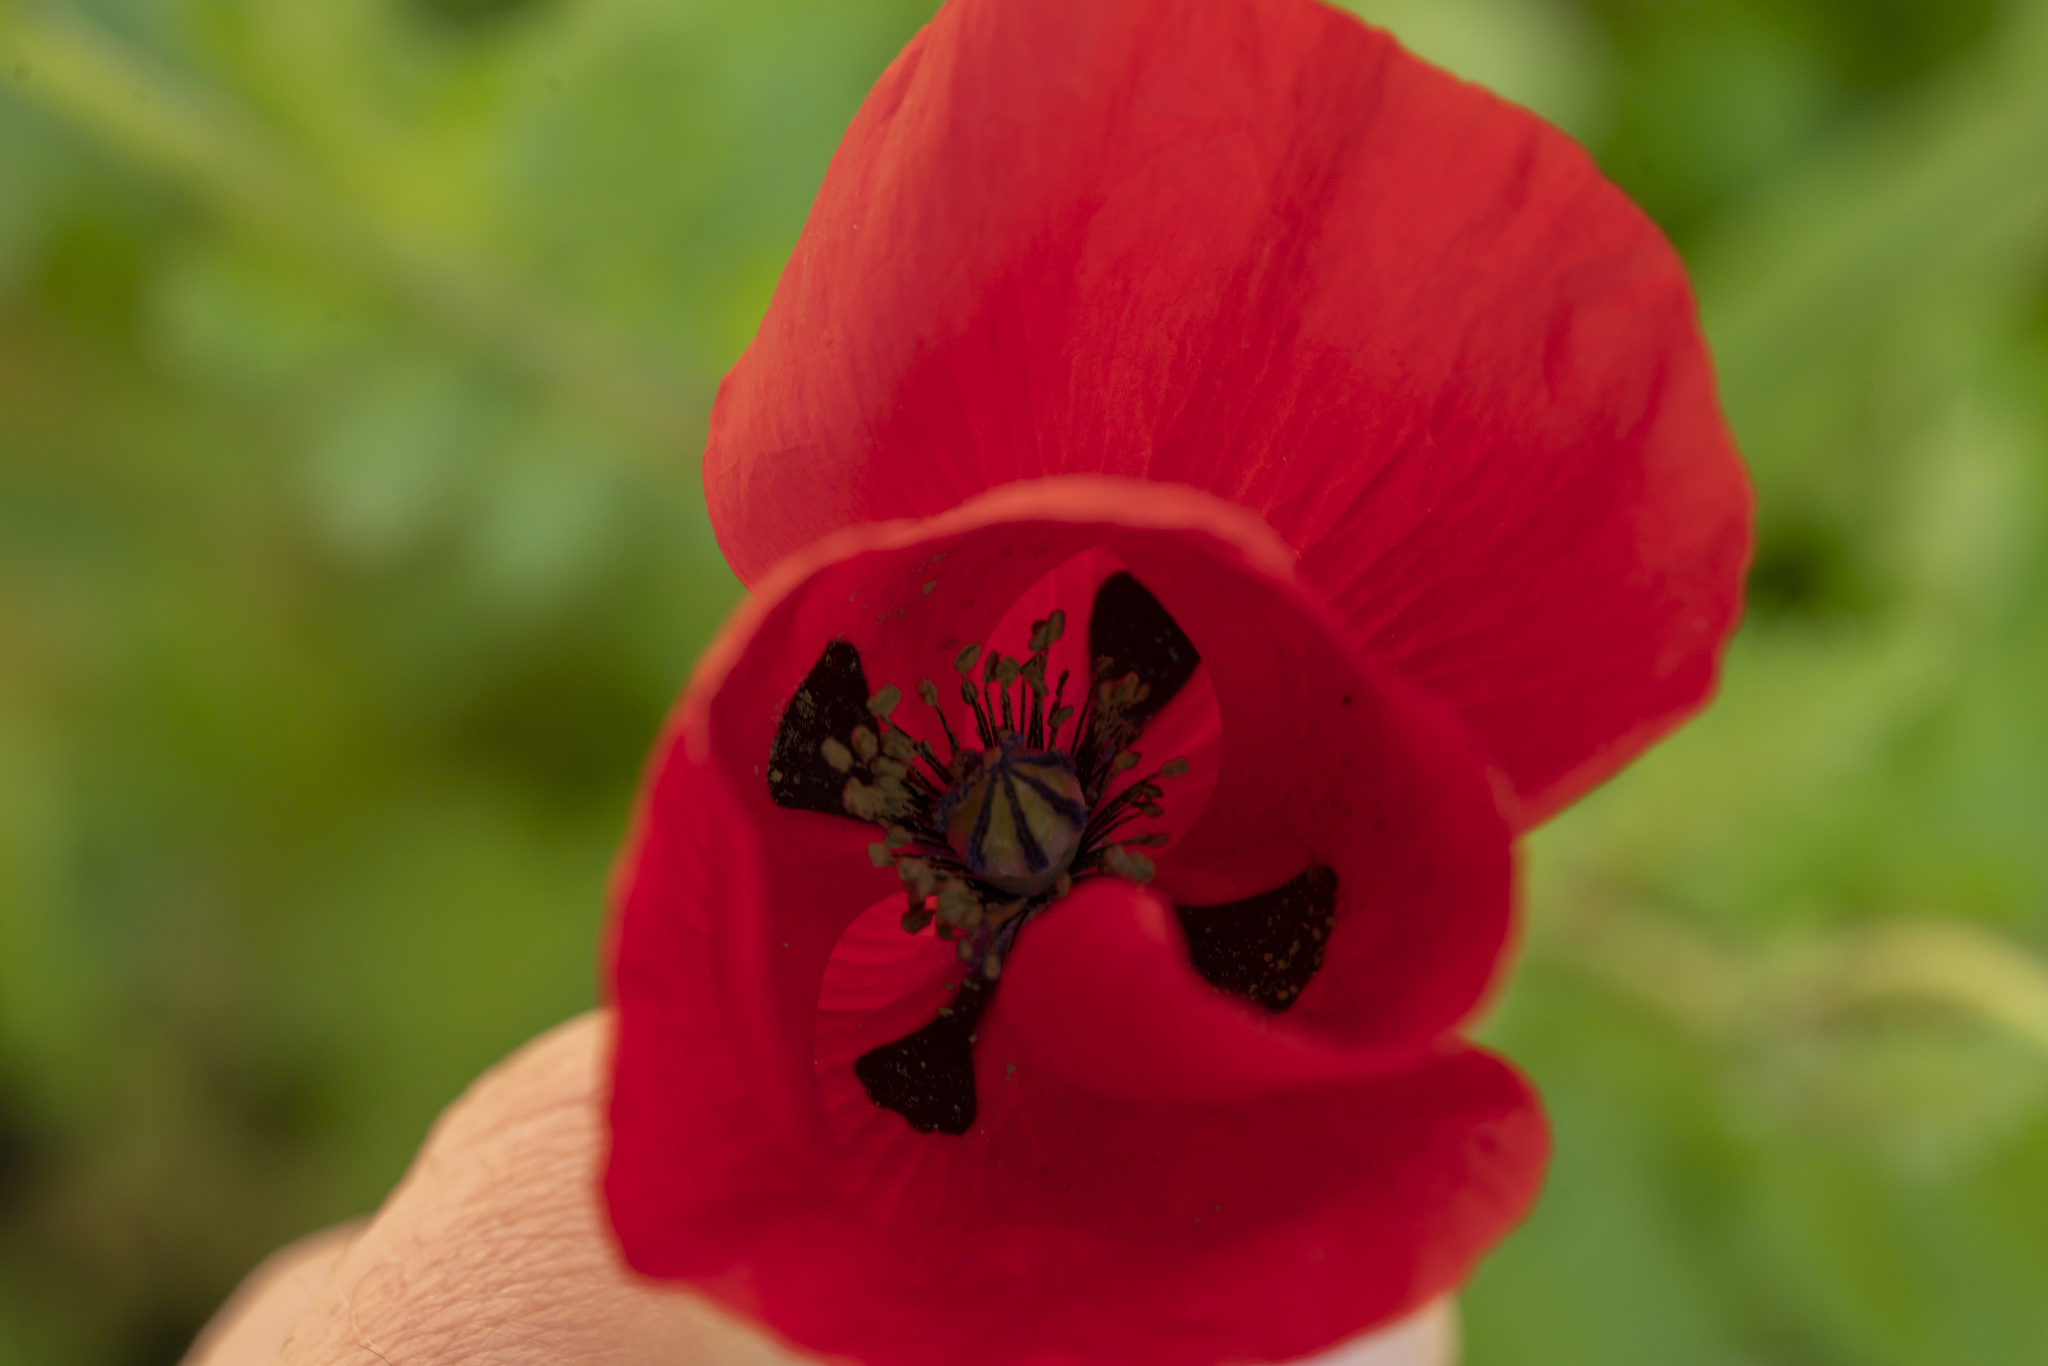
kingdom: Plantae
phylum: Tracheophyta
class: Magnoliopsida
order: Ranunculales
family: Papaveraceae
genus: Papaver
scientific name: Papaver rhoeas
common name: Corn poppy
